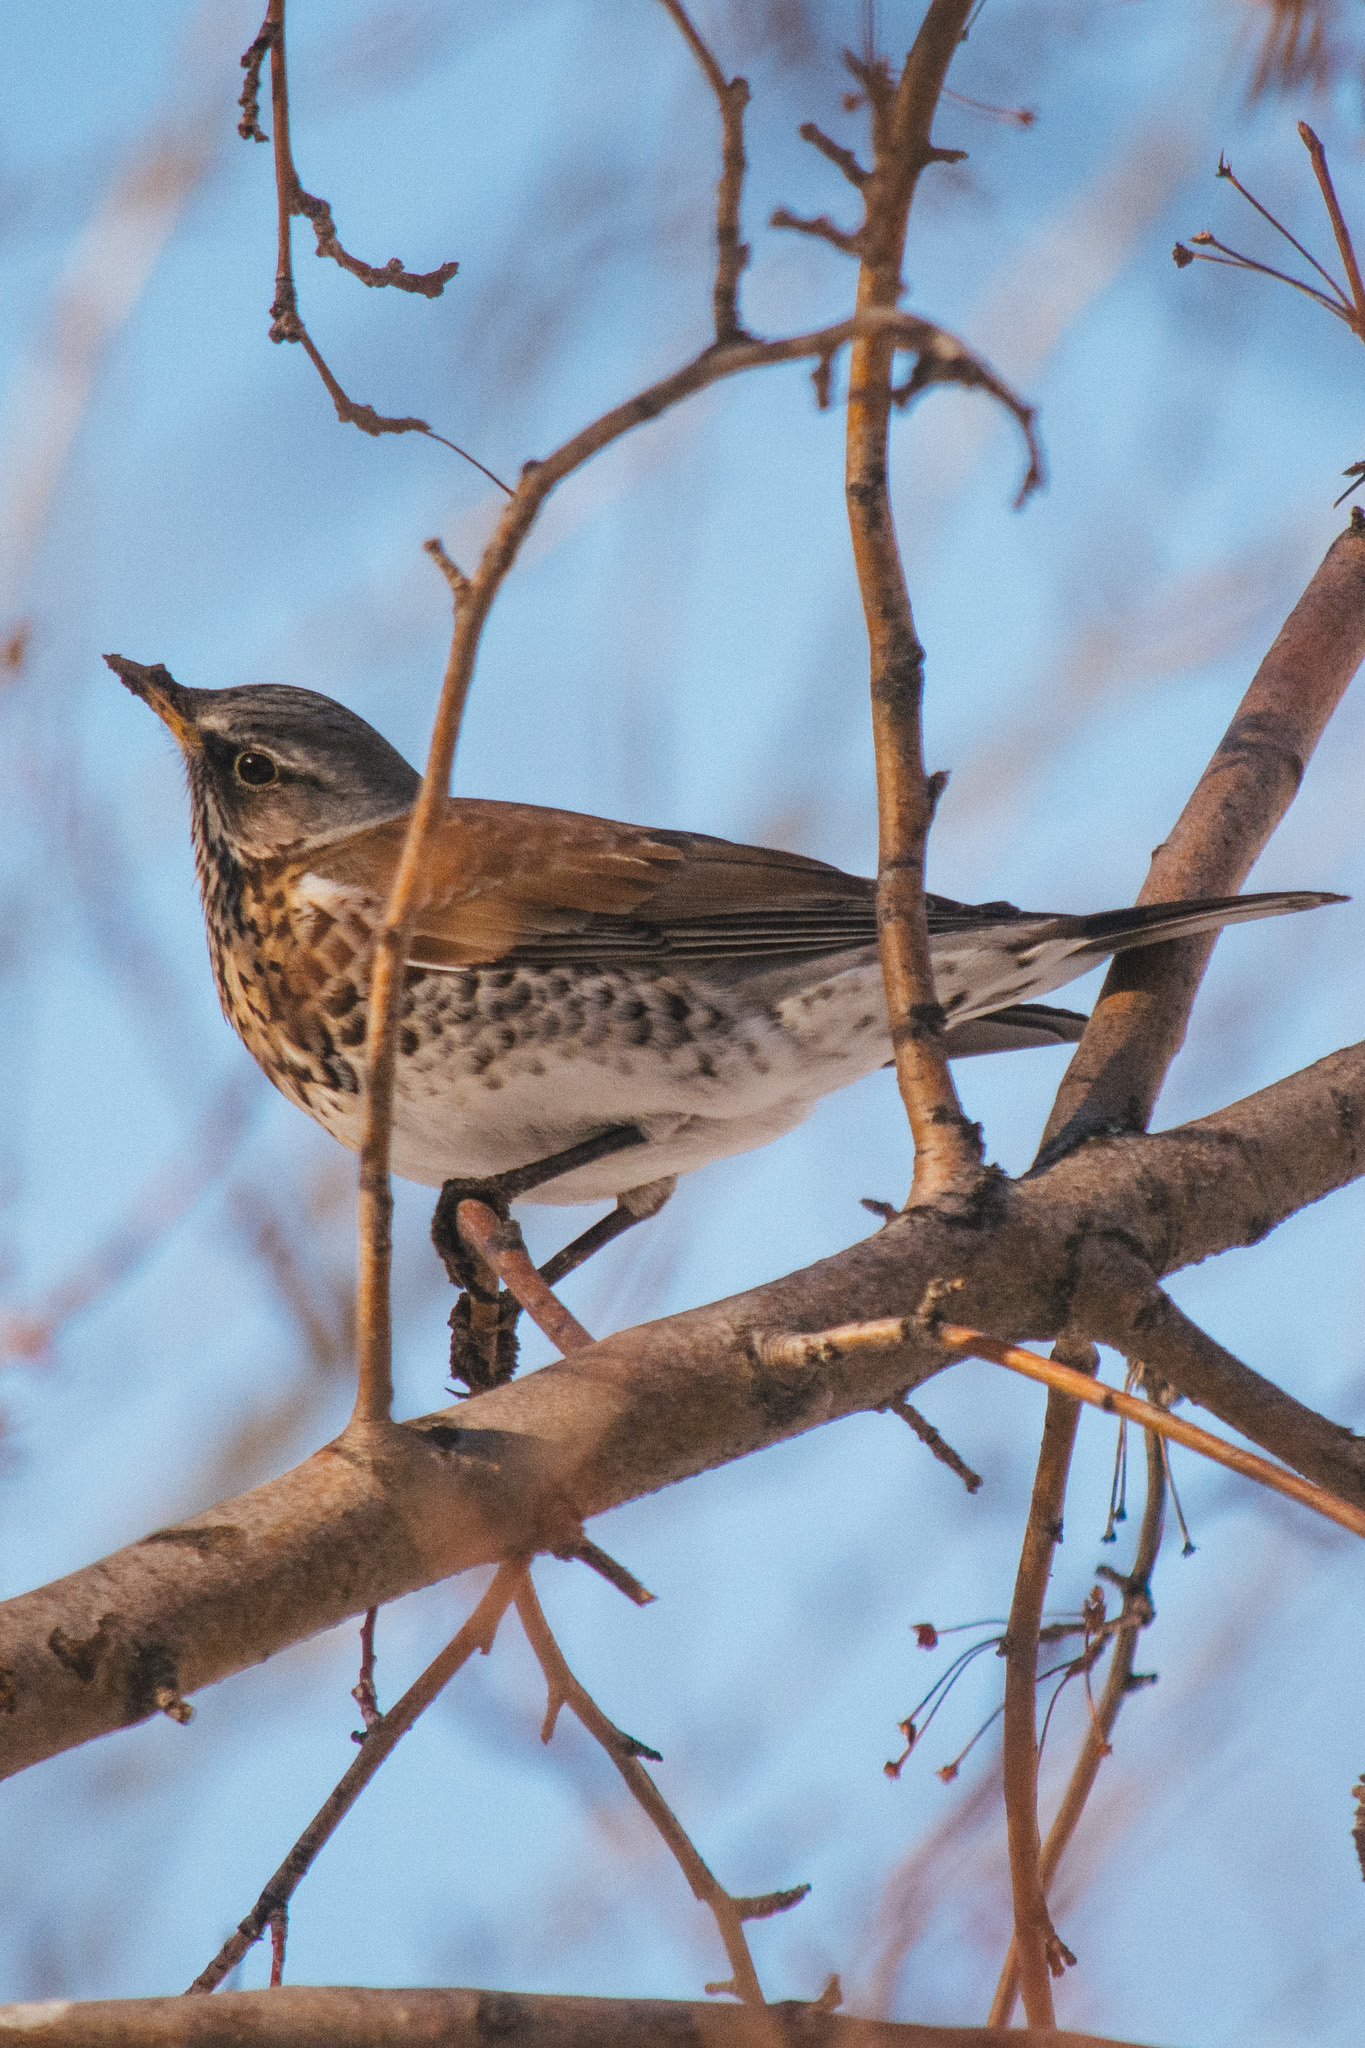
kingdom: Animalia
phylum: Chordata
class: Aves
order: Passeriformes
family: Turdidae
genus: Turdus
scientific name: Turdus pilaris
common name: Fieldfare
